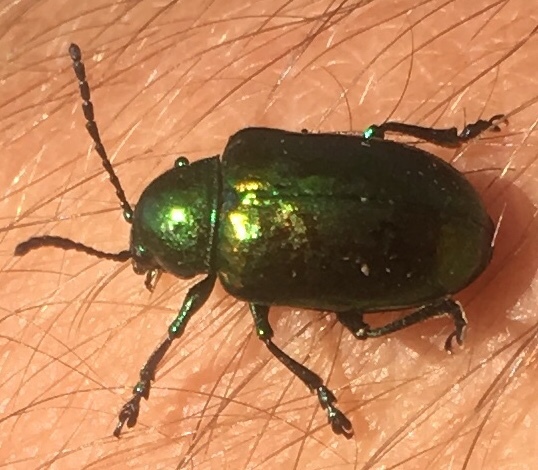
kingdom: Animalia
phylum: Arthropoda
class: Insecta
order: Coleoptera
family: Chrysomelidae
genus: Chrysochus
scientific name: Chrysochus auratus
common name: Dogbane leaf beetle
